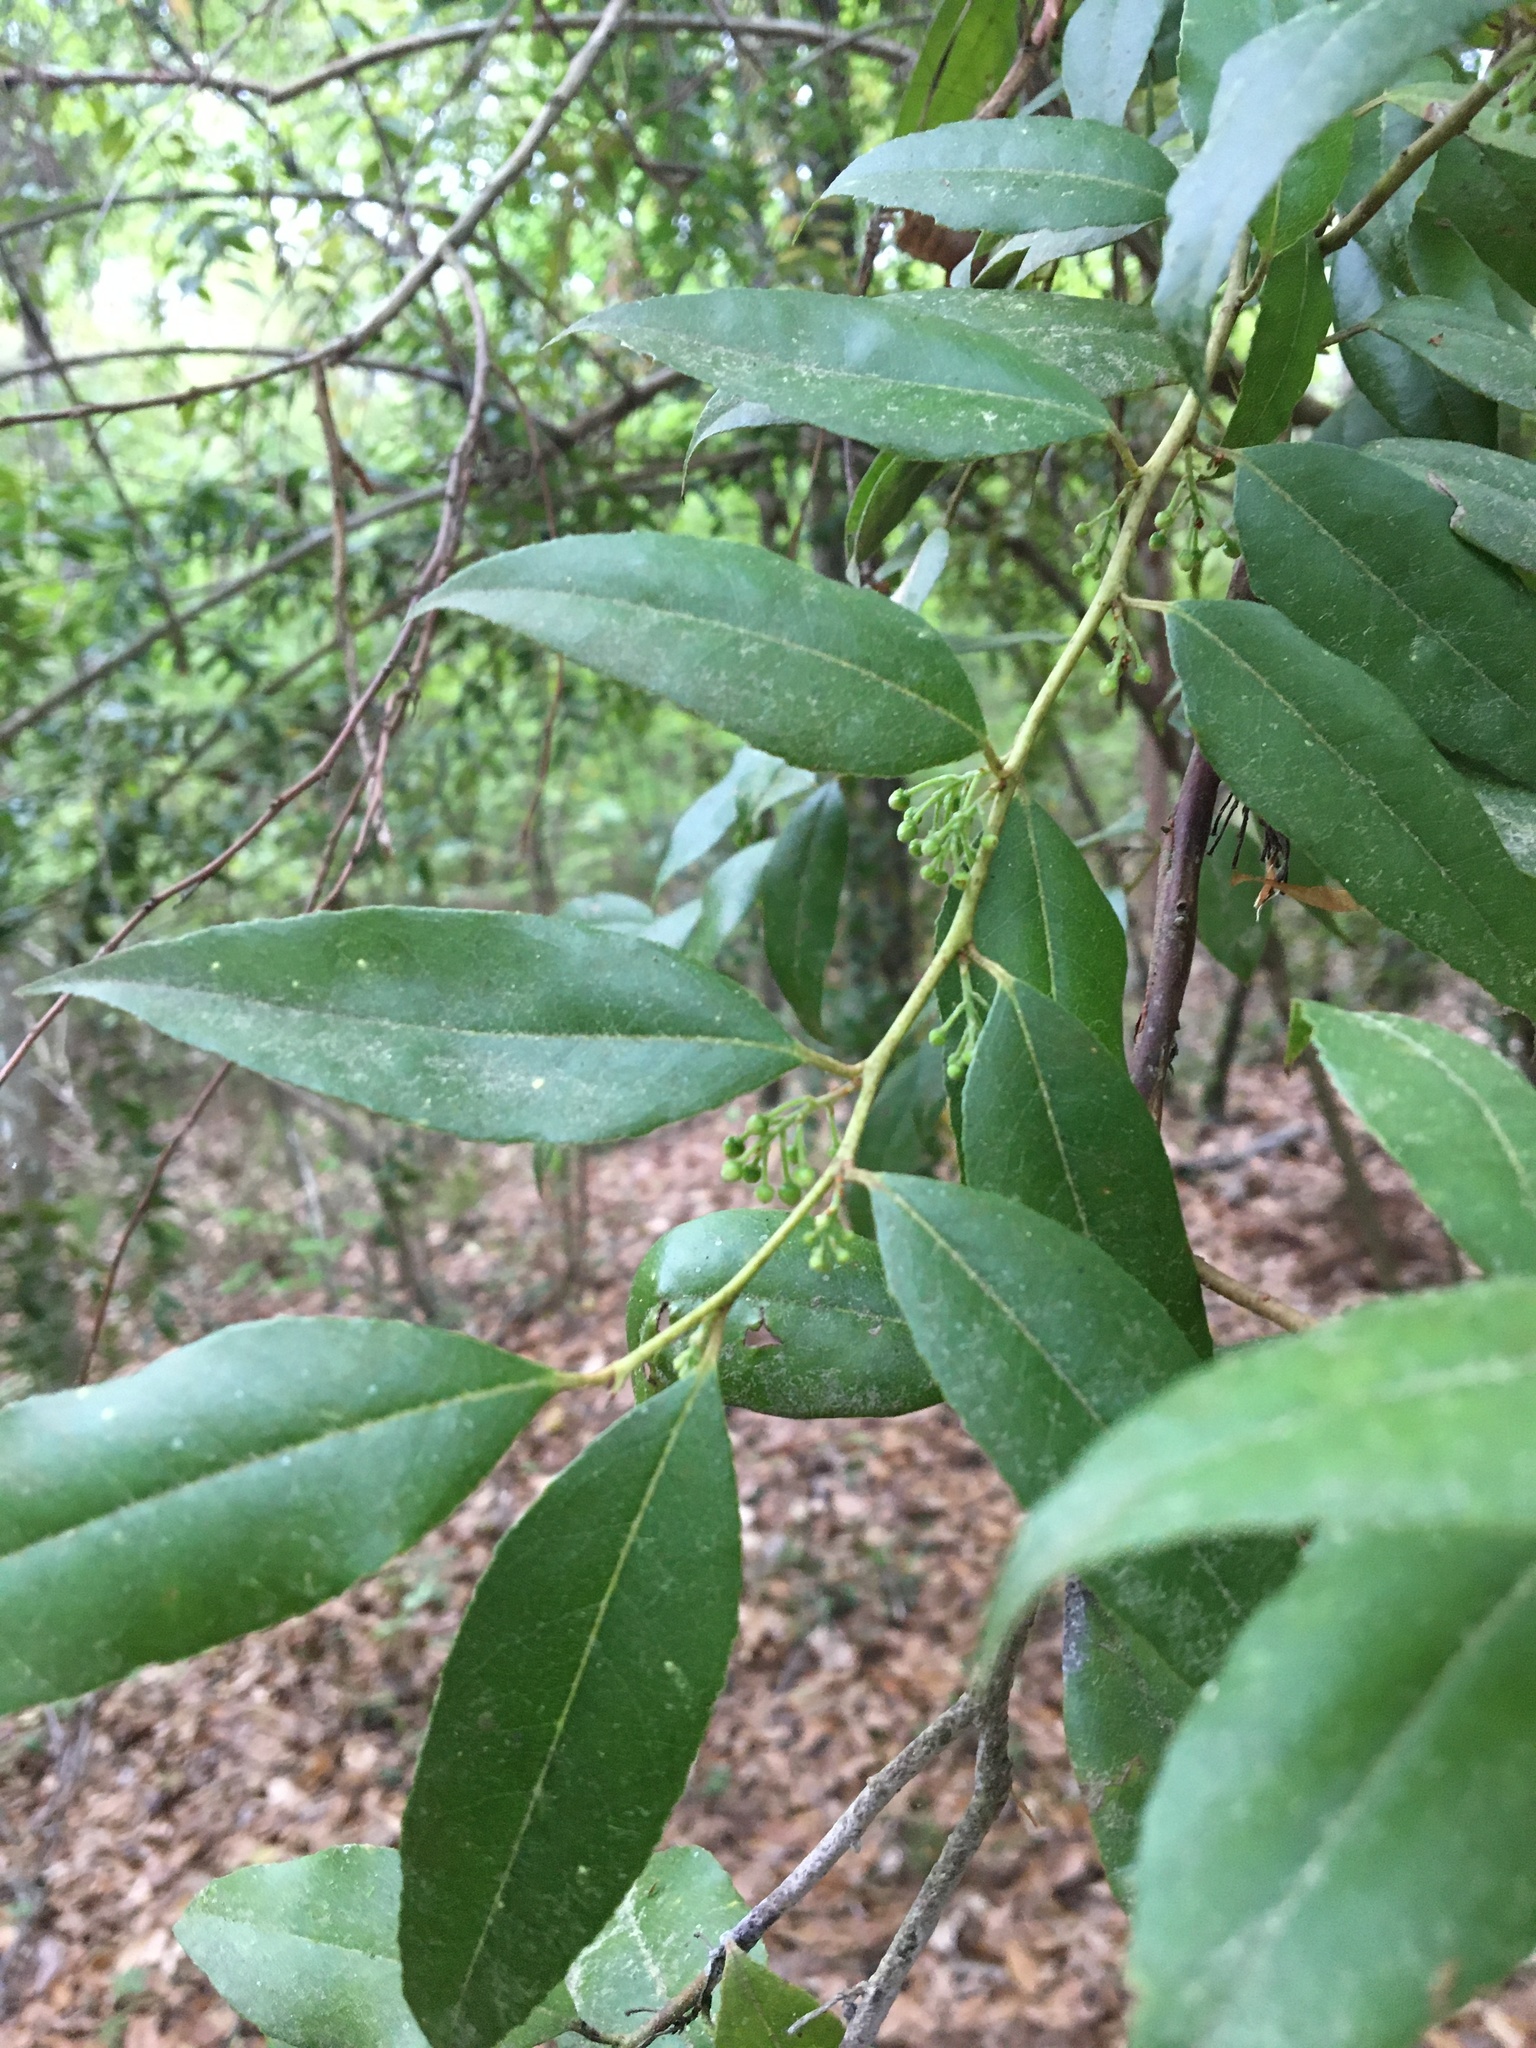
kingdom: Plantae
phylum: Tracheophyta
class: Magnoliopsida
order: Rosales
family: Rosaceae
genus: Prunus
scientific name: Prunus serotina
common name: Black cherry
